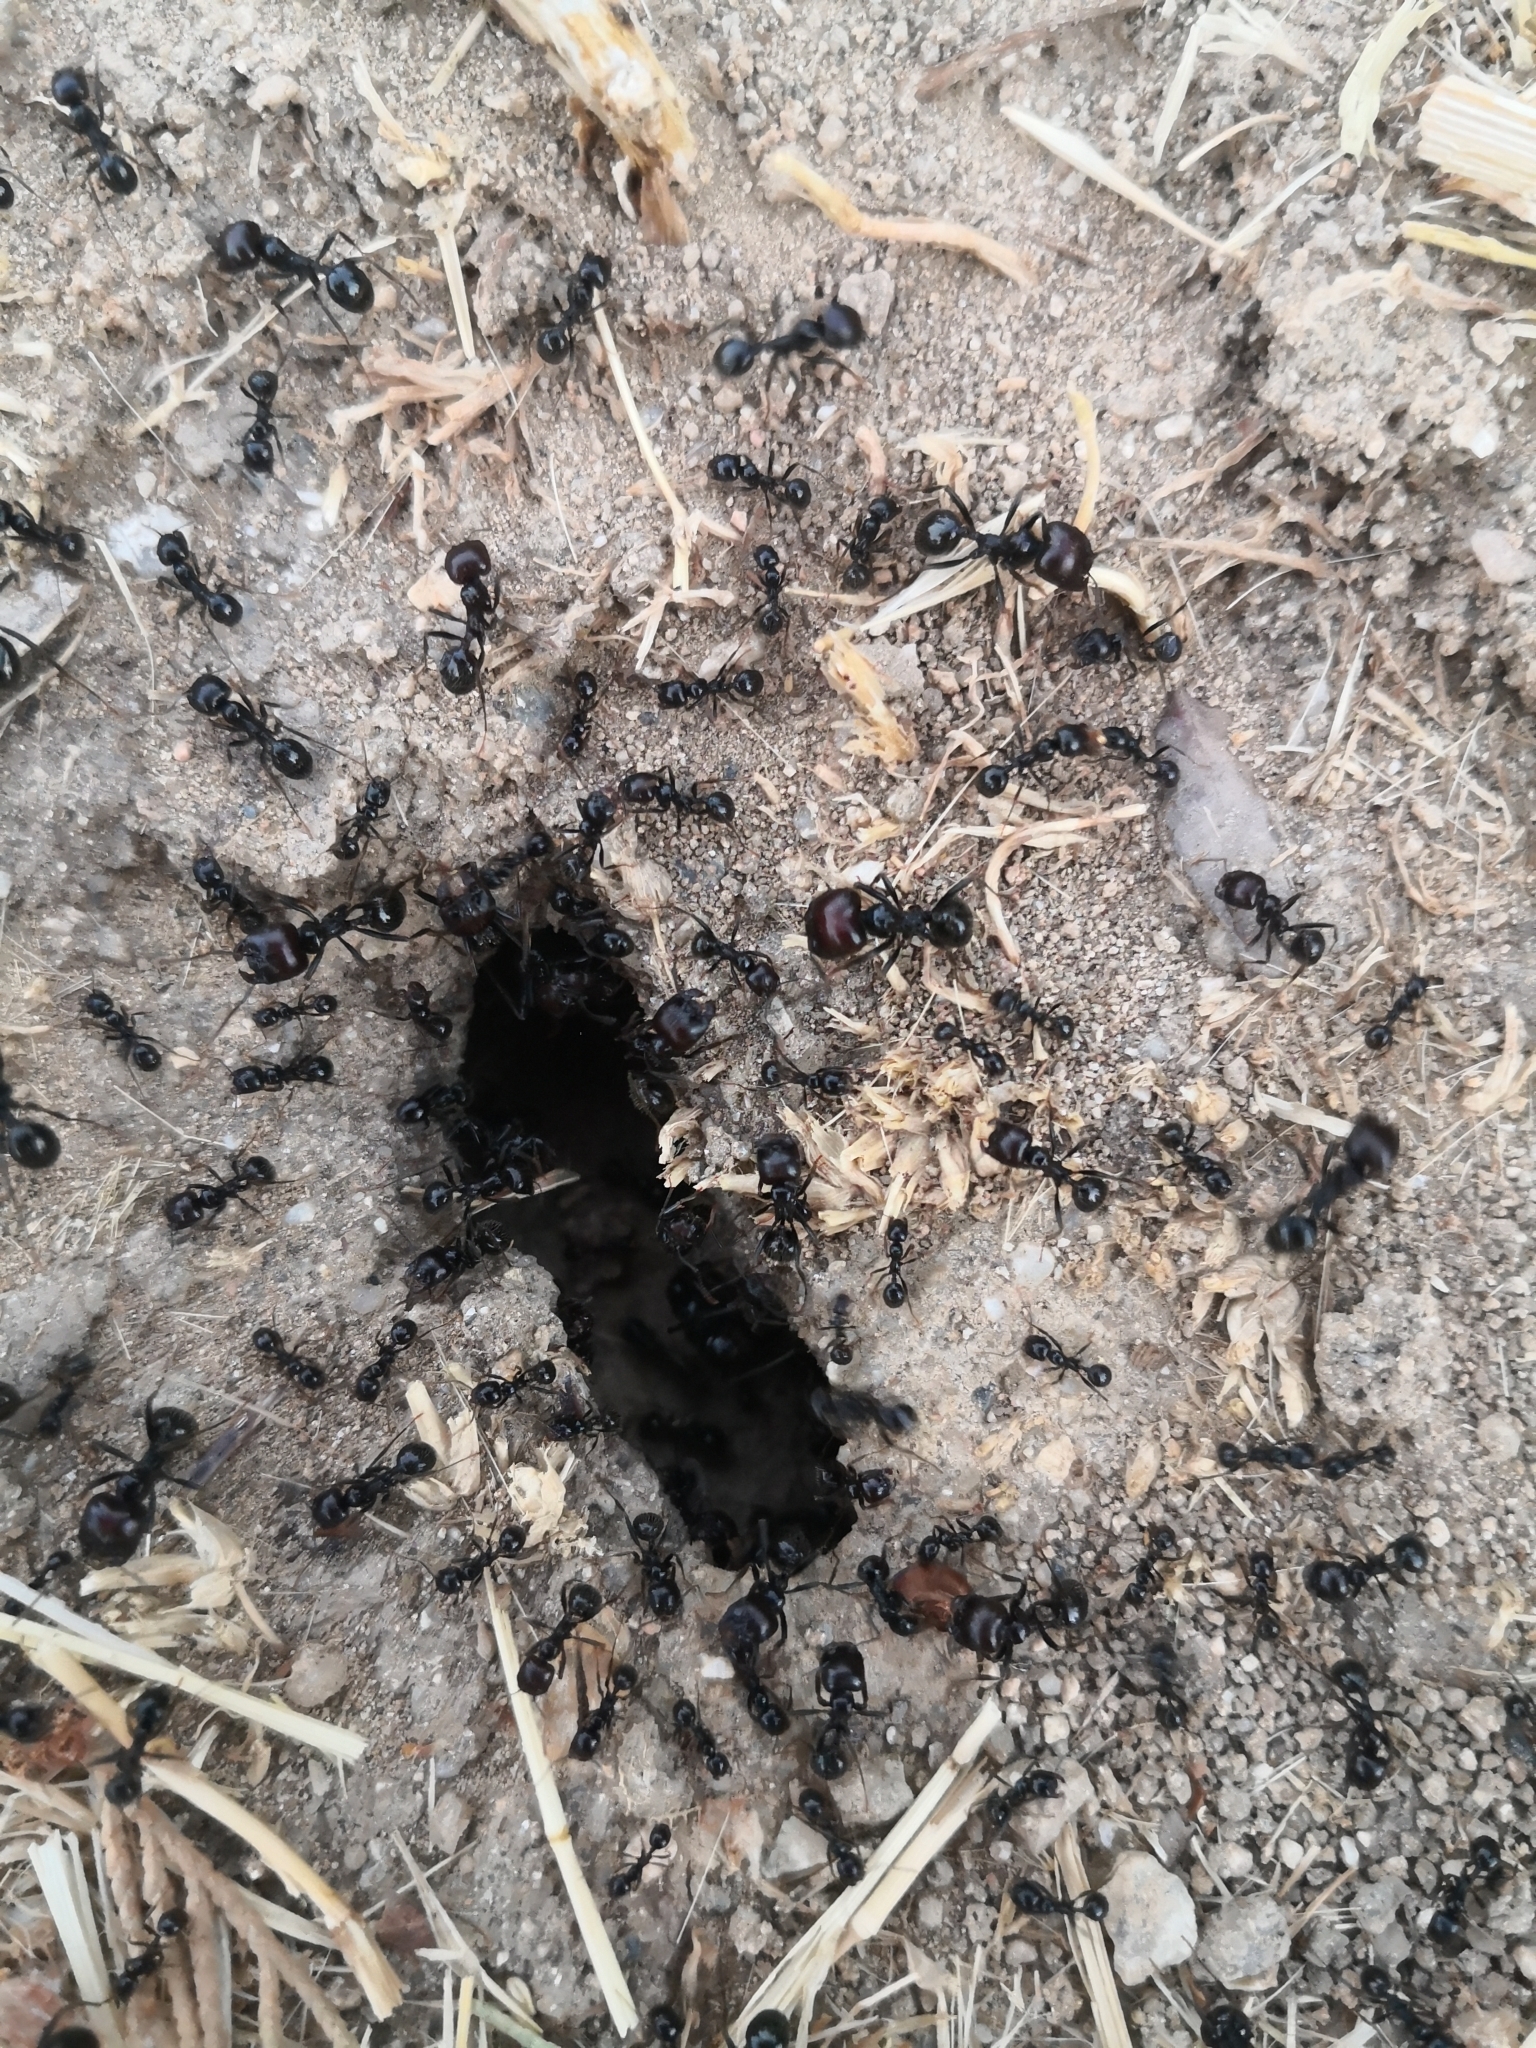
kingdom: Animalia
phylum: Arthropoda
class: Insecta
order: Hymenoptera
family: Formicidae
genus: Messor
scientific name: Messor barbarus
